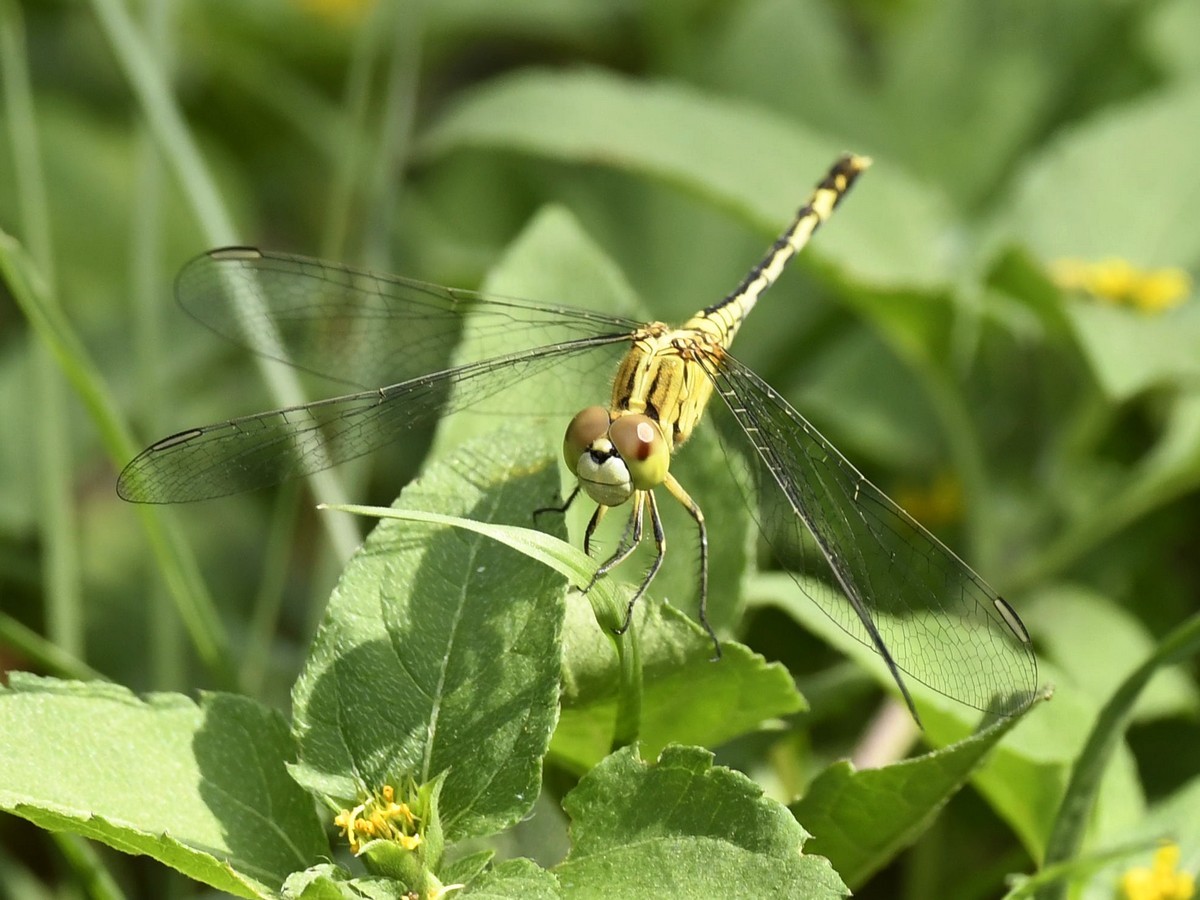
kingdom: Animalia
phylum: Arthropoda
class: Insecta
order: Odonata
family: Libellulidae
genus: Diplacodes
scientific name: Diplacodes trivialis
